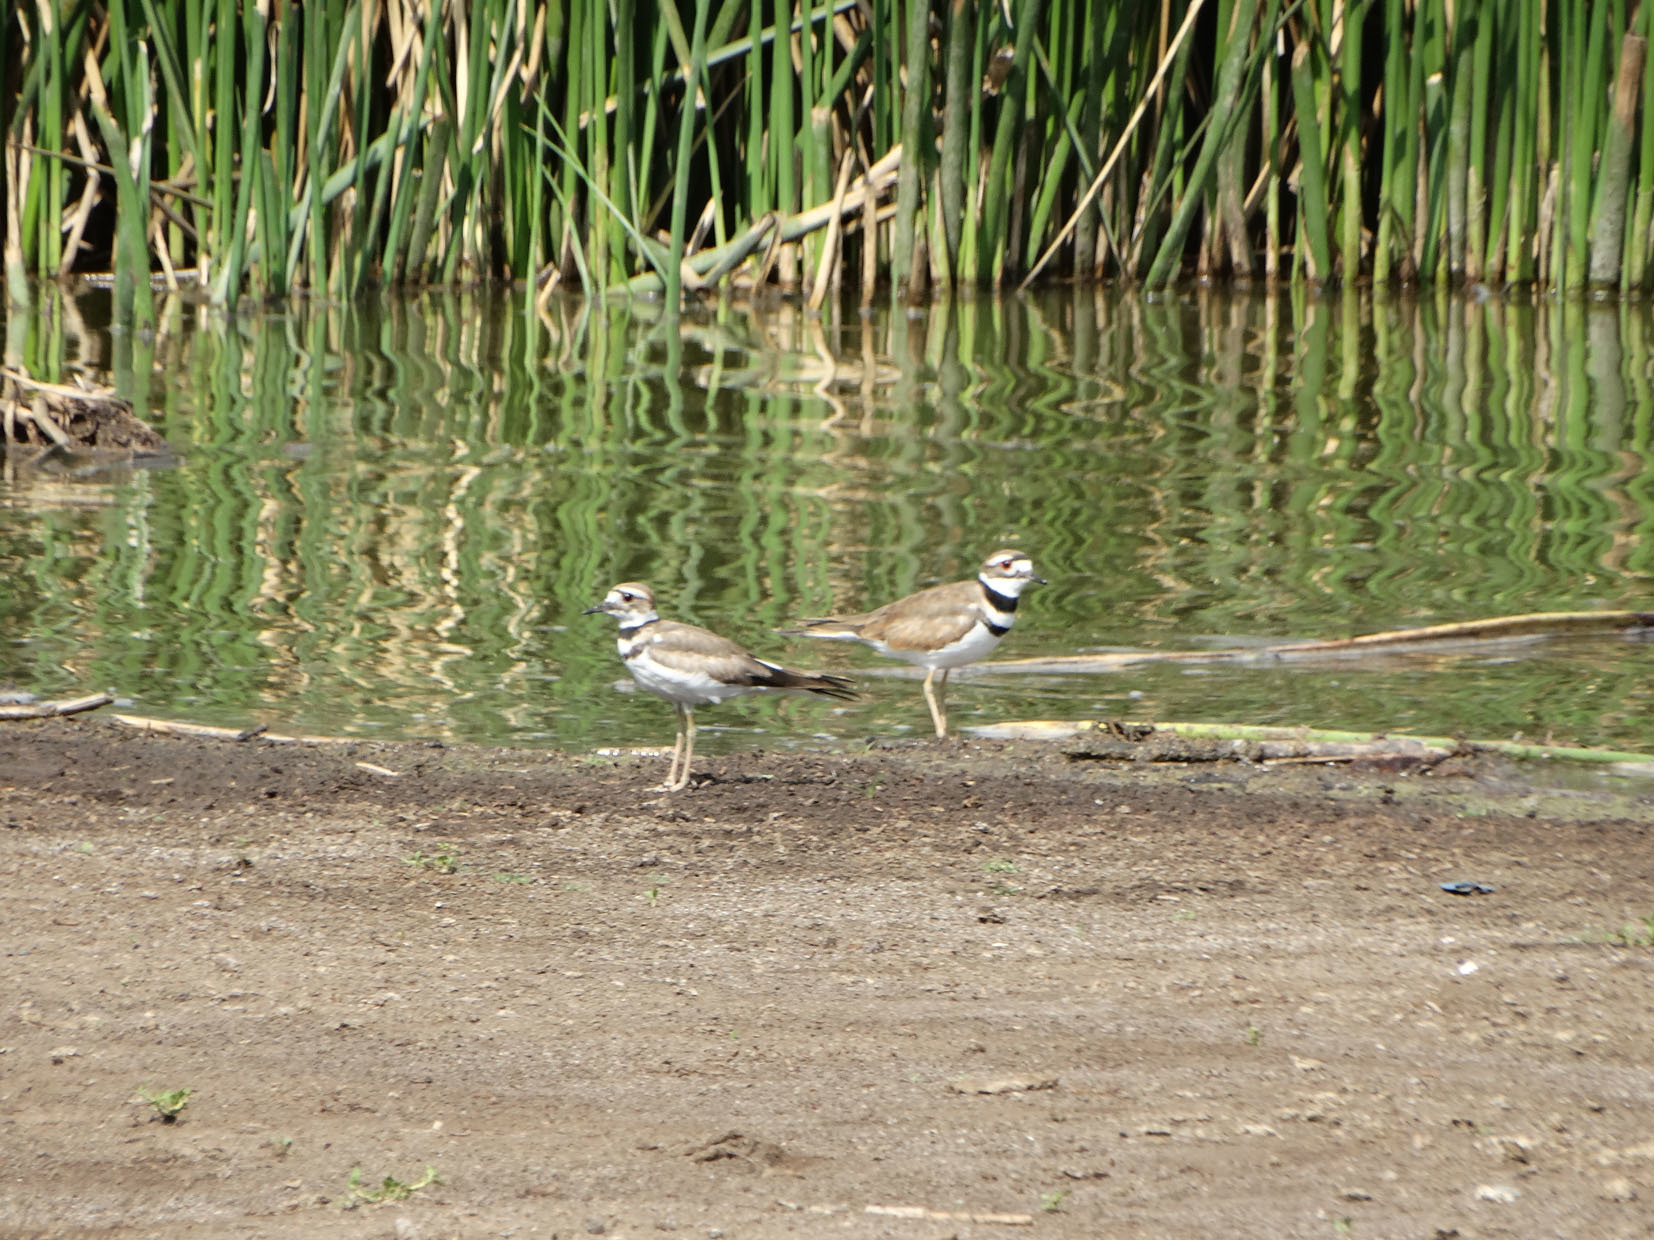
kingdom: Animalia
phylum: Chordata
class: Aves
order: Charadriiformes
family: Charadriidae
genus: Charadrius
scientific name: Charadrius vociferus
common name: Killdeer
